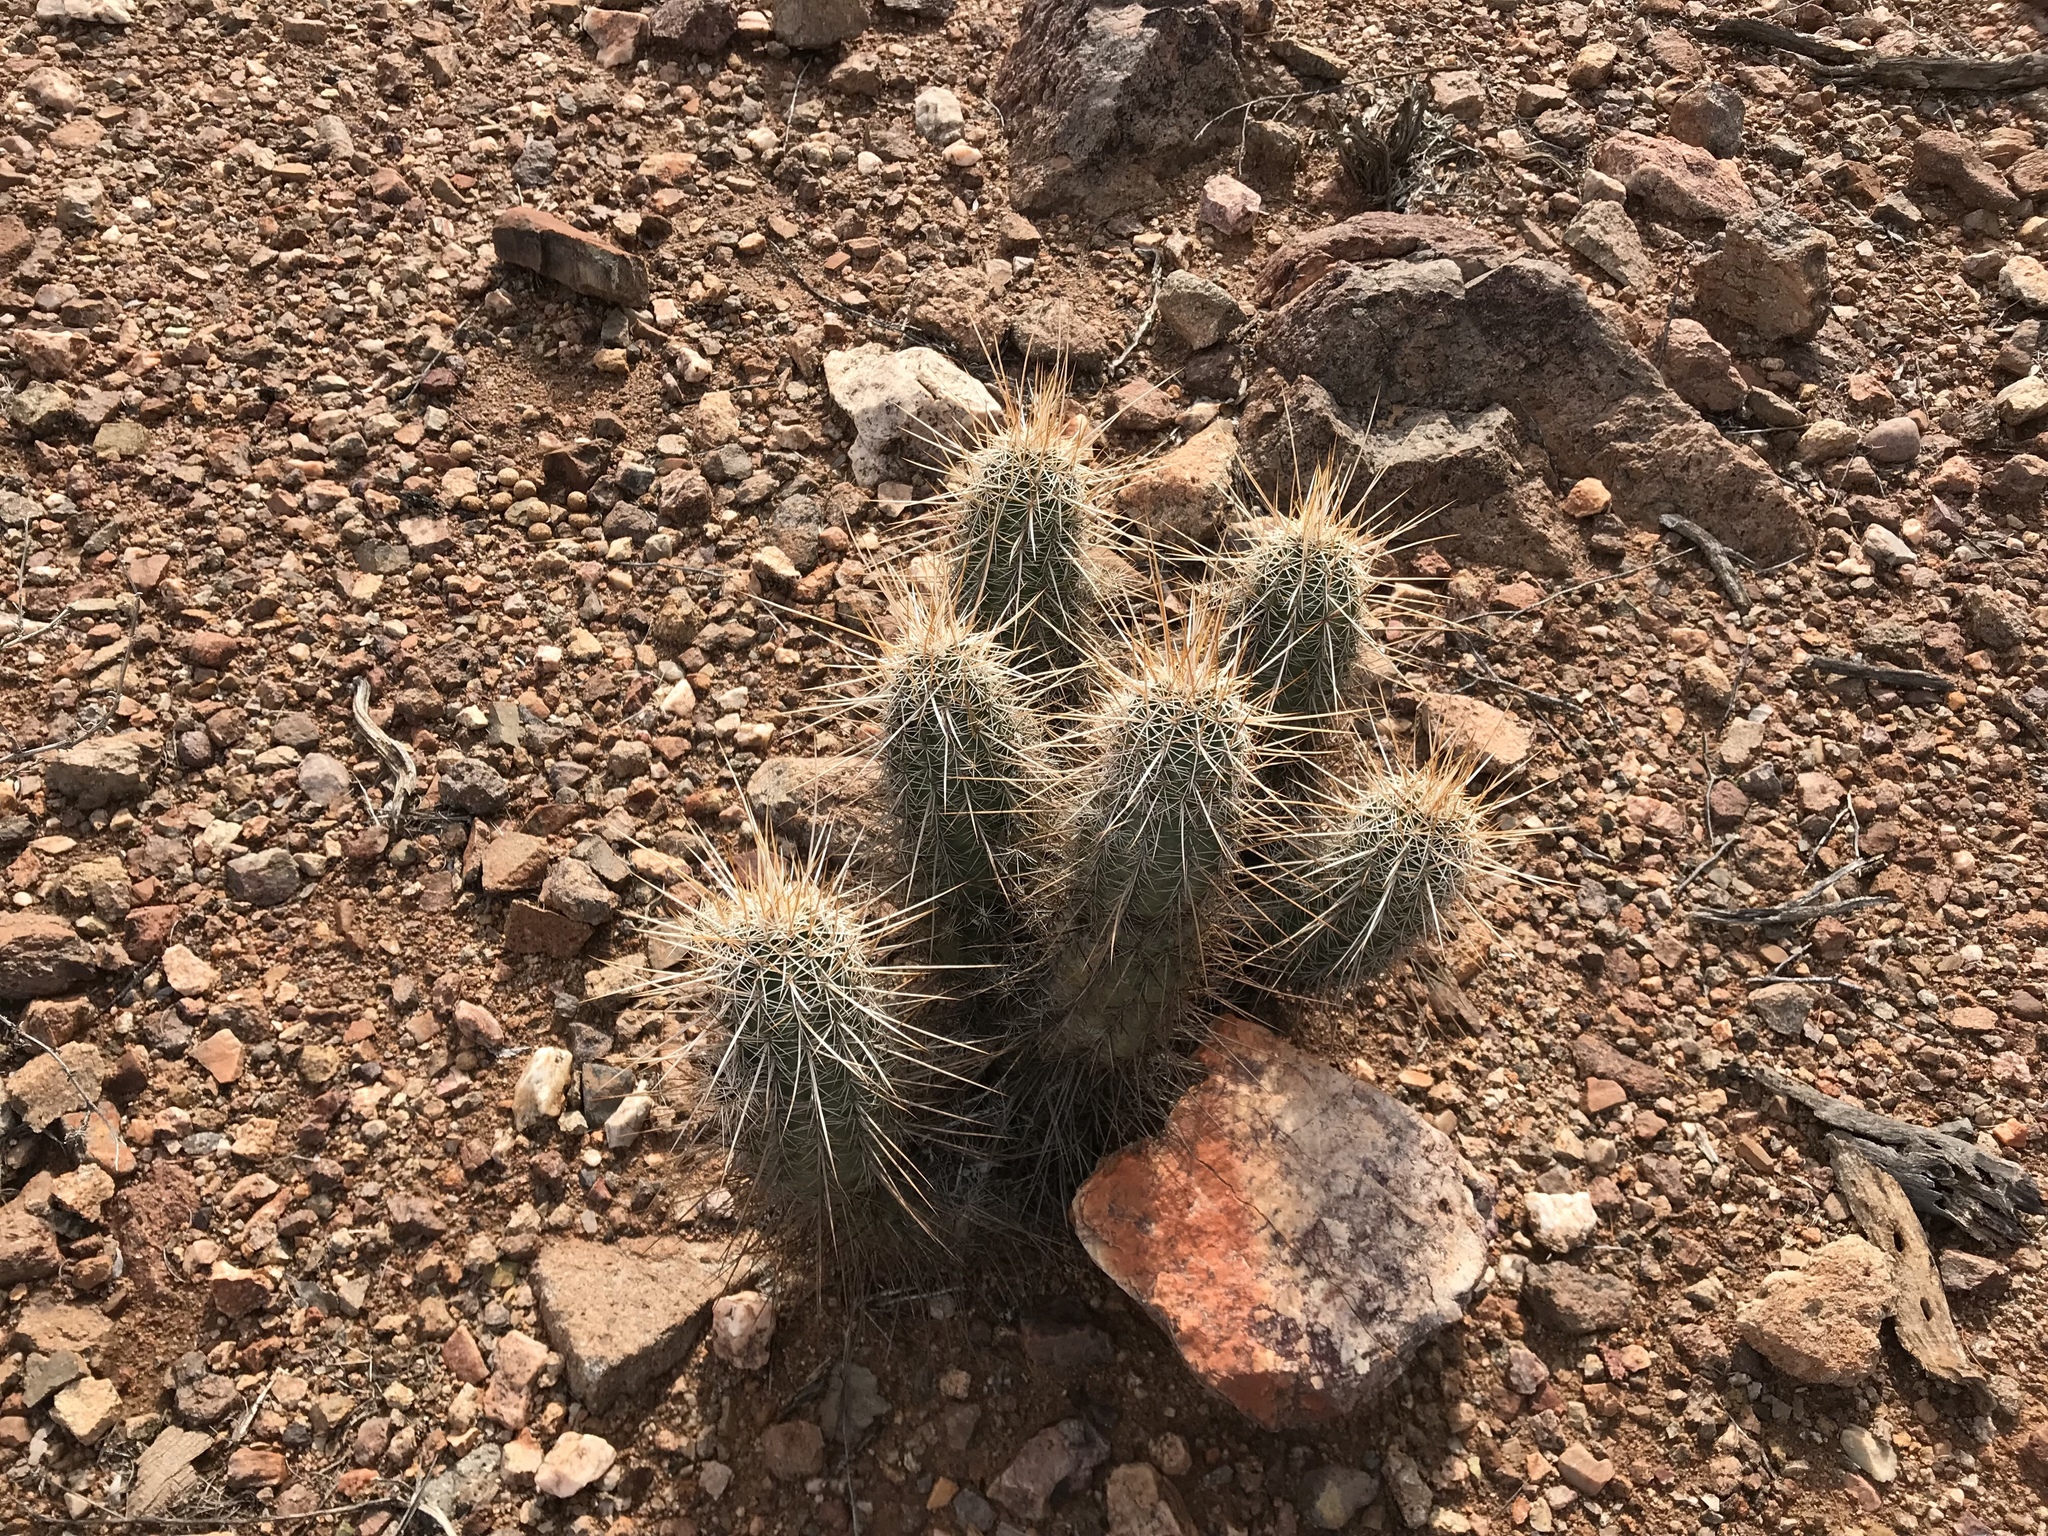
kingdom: Plantae
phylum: Tracheophyta
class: Magnoliopsida
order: Caryophyllales
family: Cactaceae
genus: Echinocereus
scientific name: Echinocereus engelmannii
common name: Engelmann's hedgehog cactus
